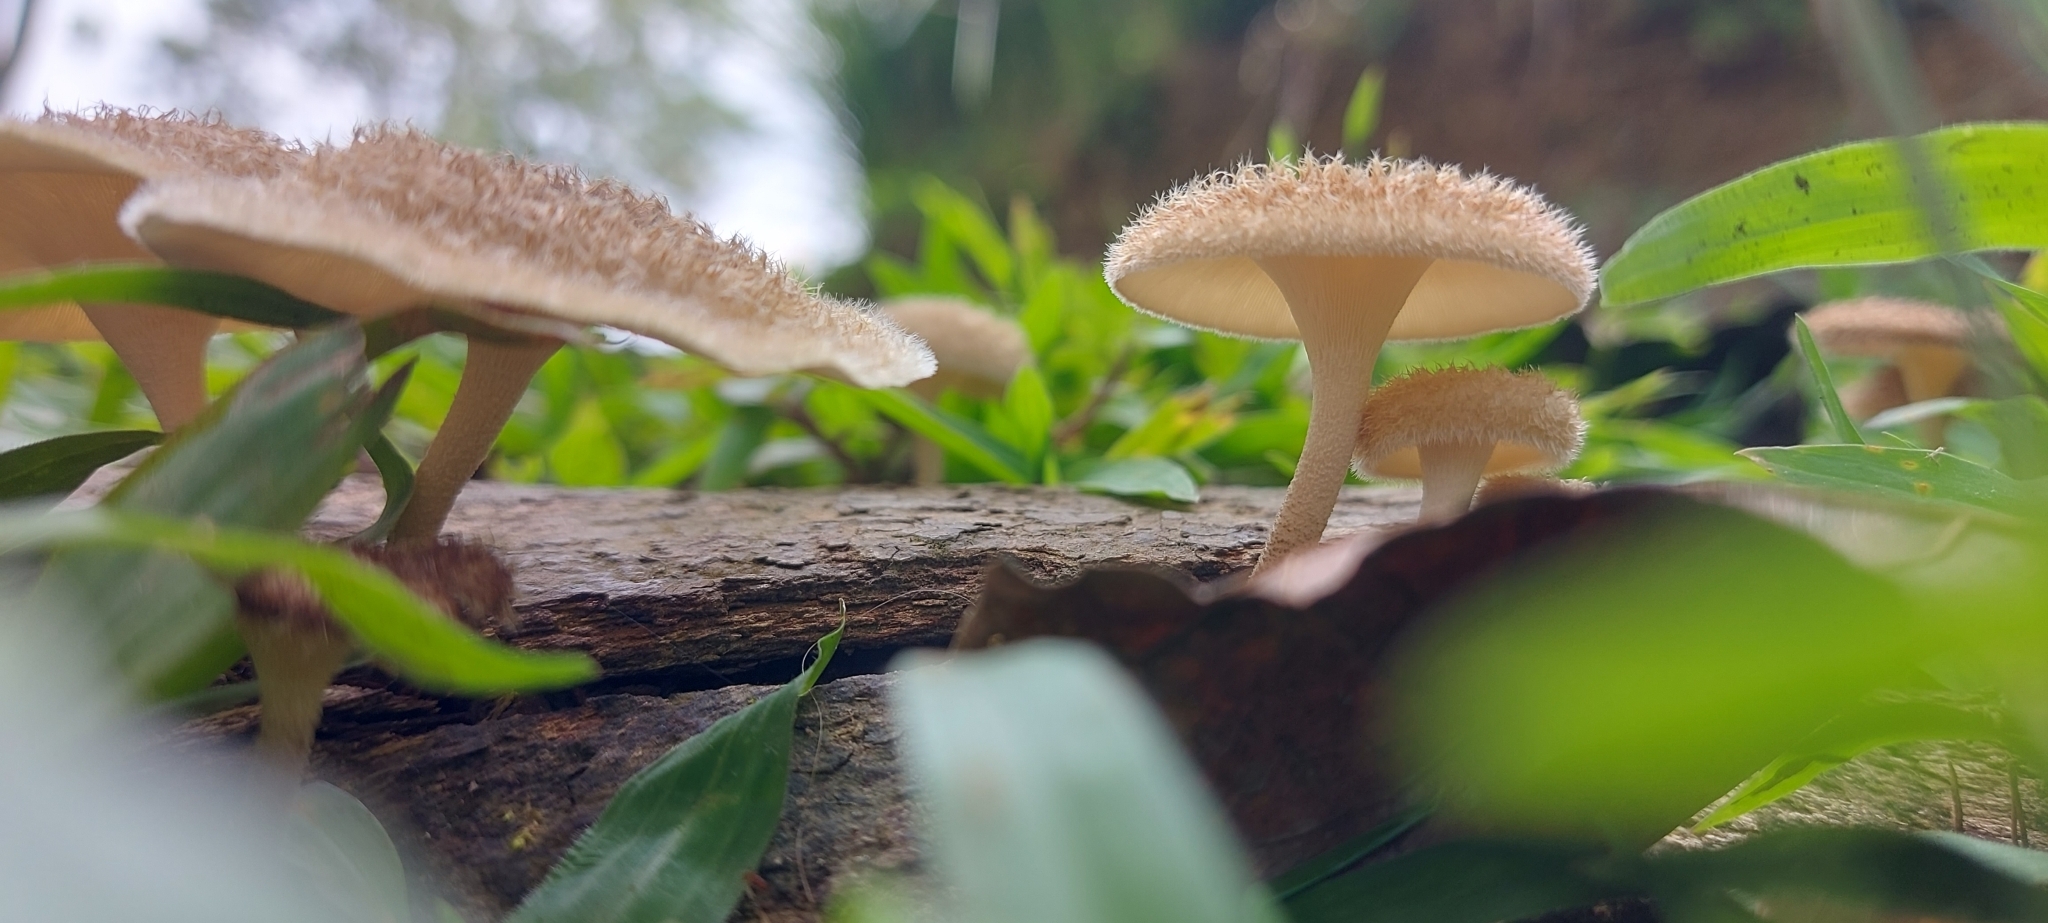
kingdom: Fungi
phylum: Basidiomycota
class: Agaricomycetes
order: Polyporales
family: Polyporaceae
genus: Lentinus
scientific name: Lentinus crinitus
